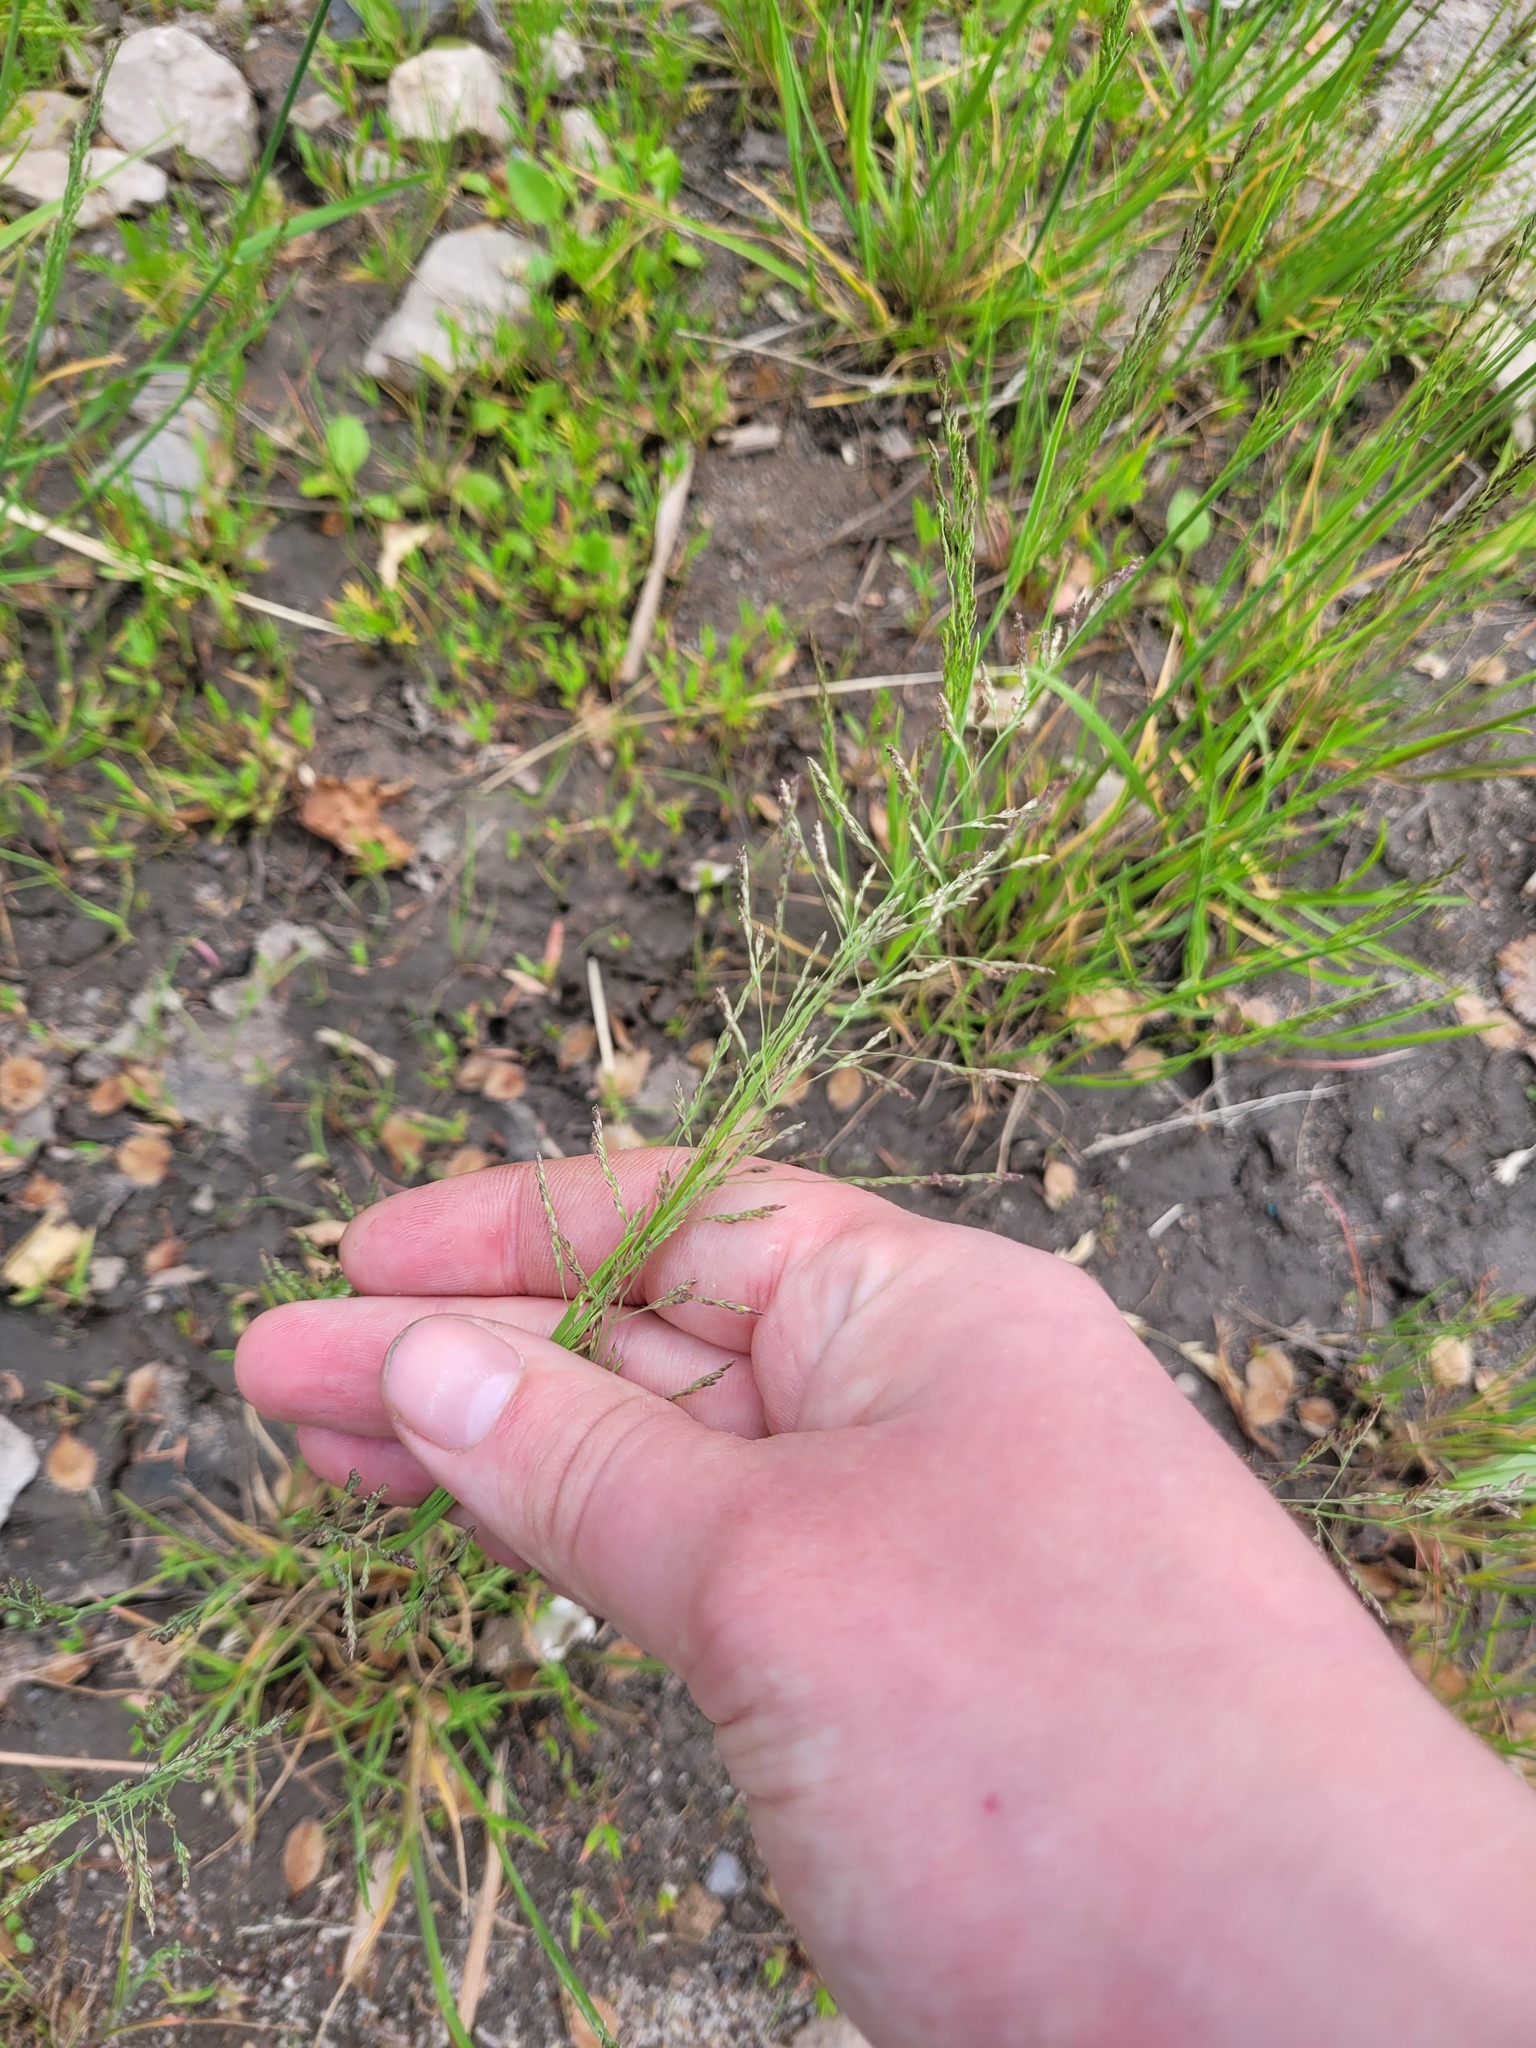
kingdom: Plantae
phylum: Tracheophyta
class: Liliopsida
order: Poales
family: Poaceae
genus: Puccinellia
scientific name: Puccinellia distans
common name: Weeping alkaligrass
